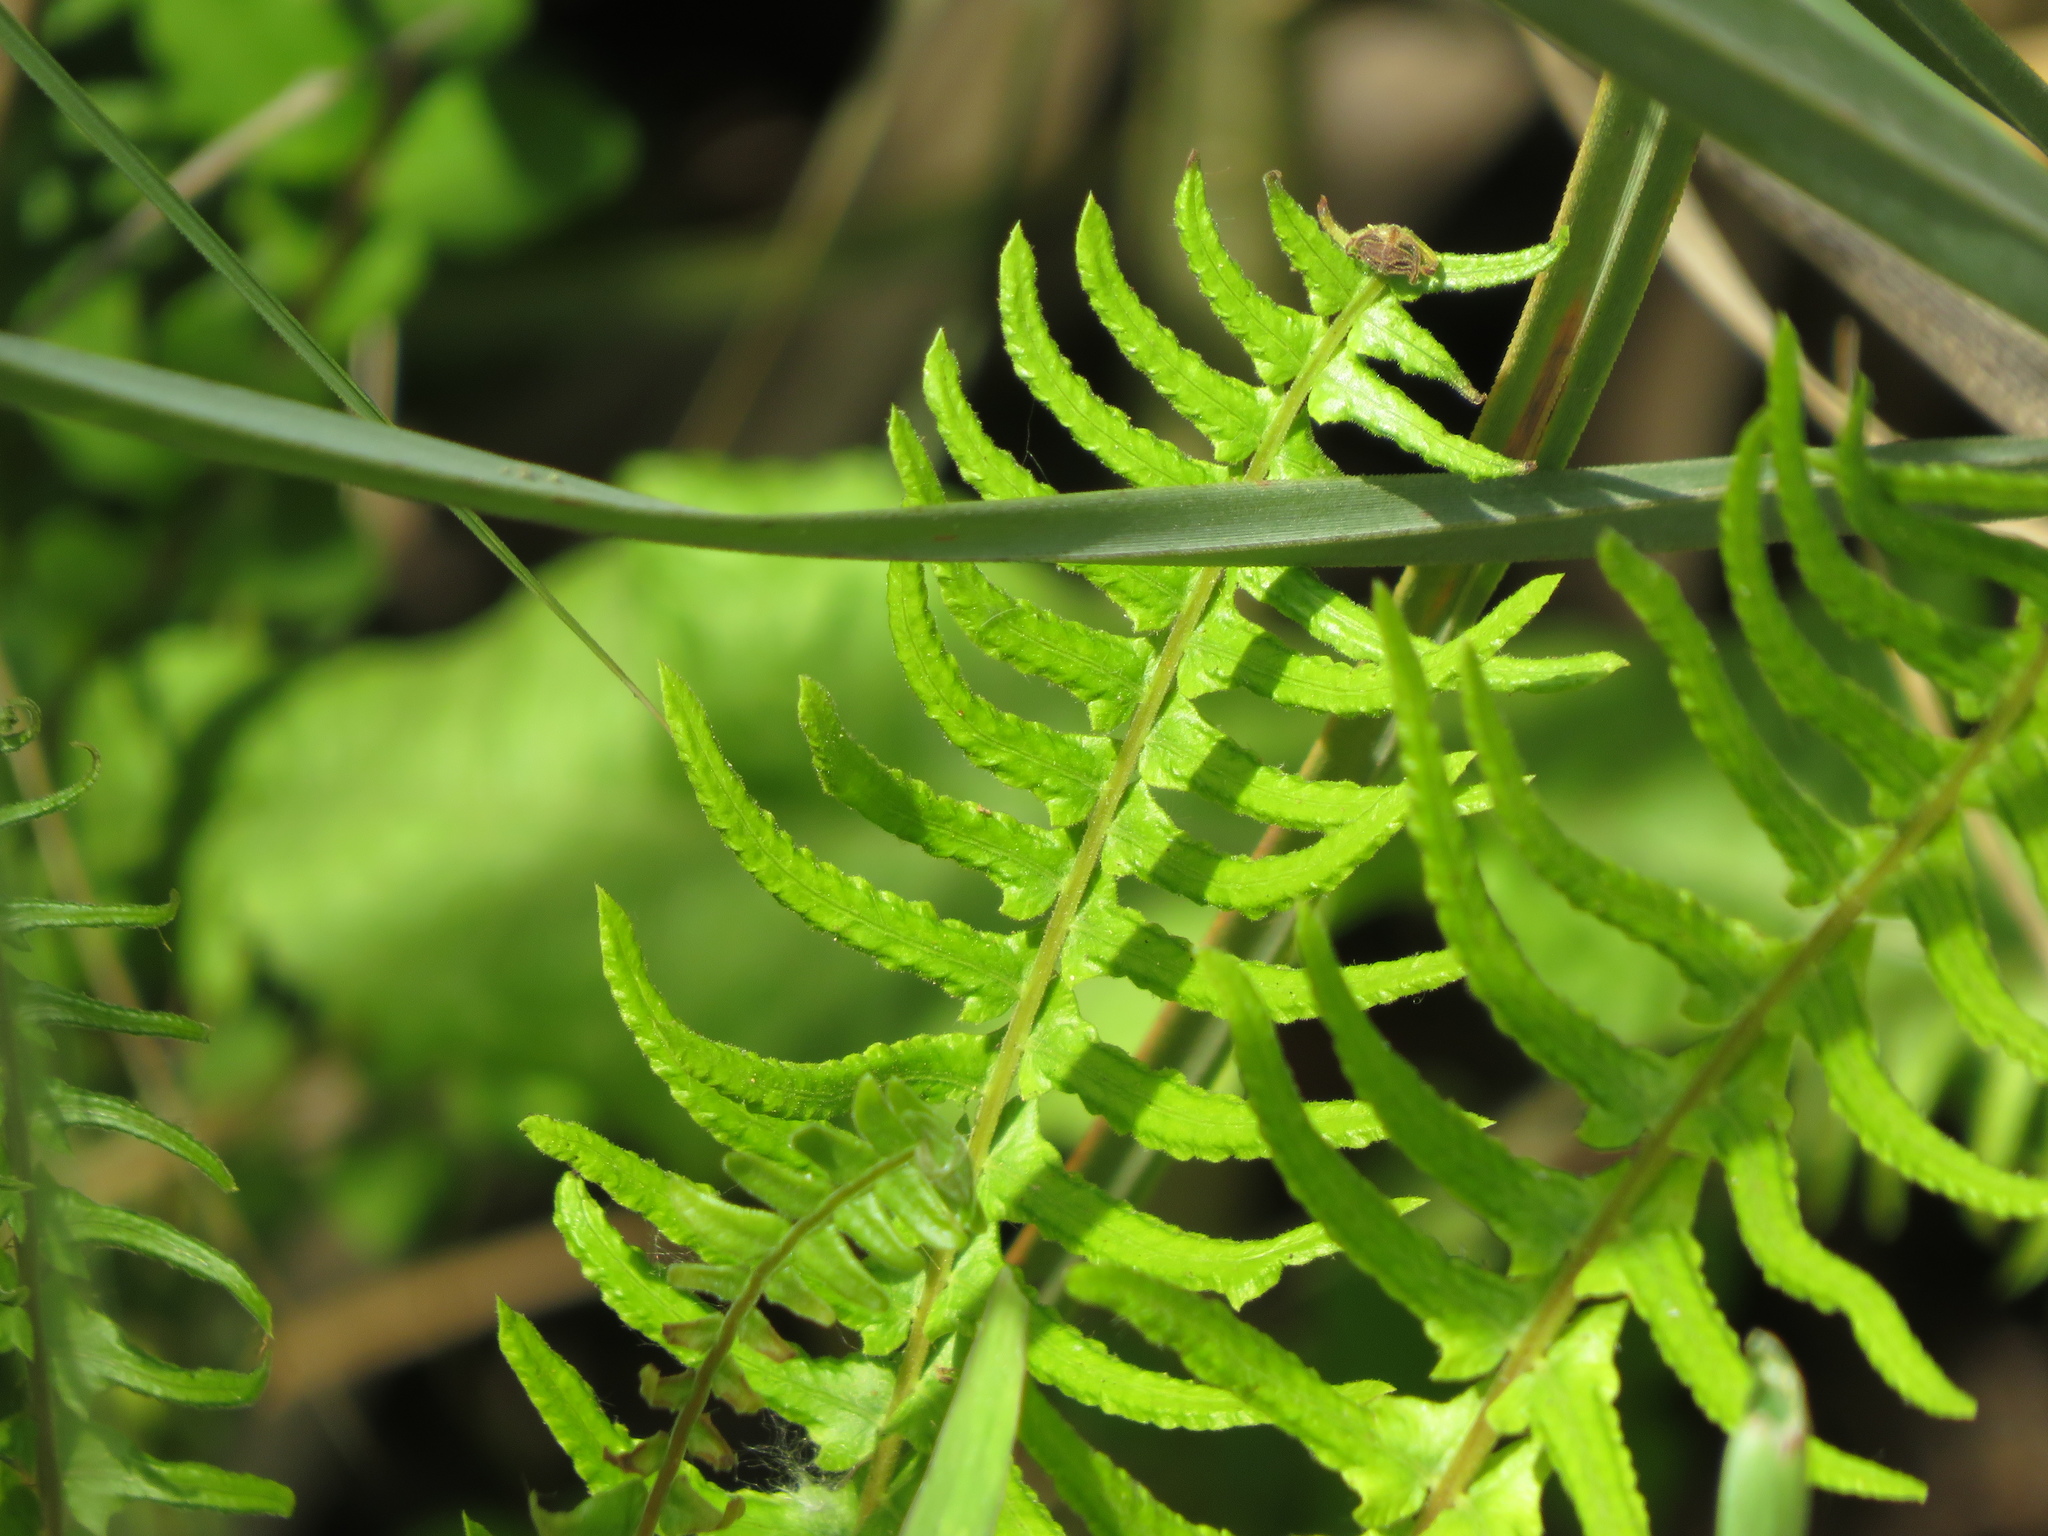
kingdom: Plantae
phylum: Tracheophyta
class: Polypodiopsida
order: Polypodiales
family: Nephrolepidaceae
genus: Nephrolepis
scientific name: Nephrolepis cordifolia
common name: Narrow swordfern
